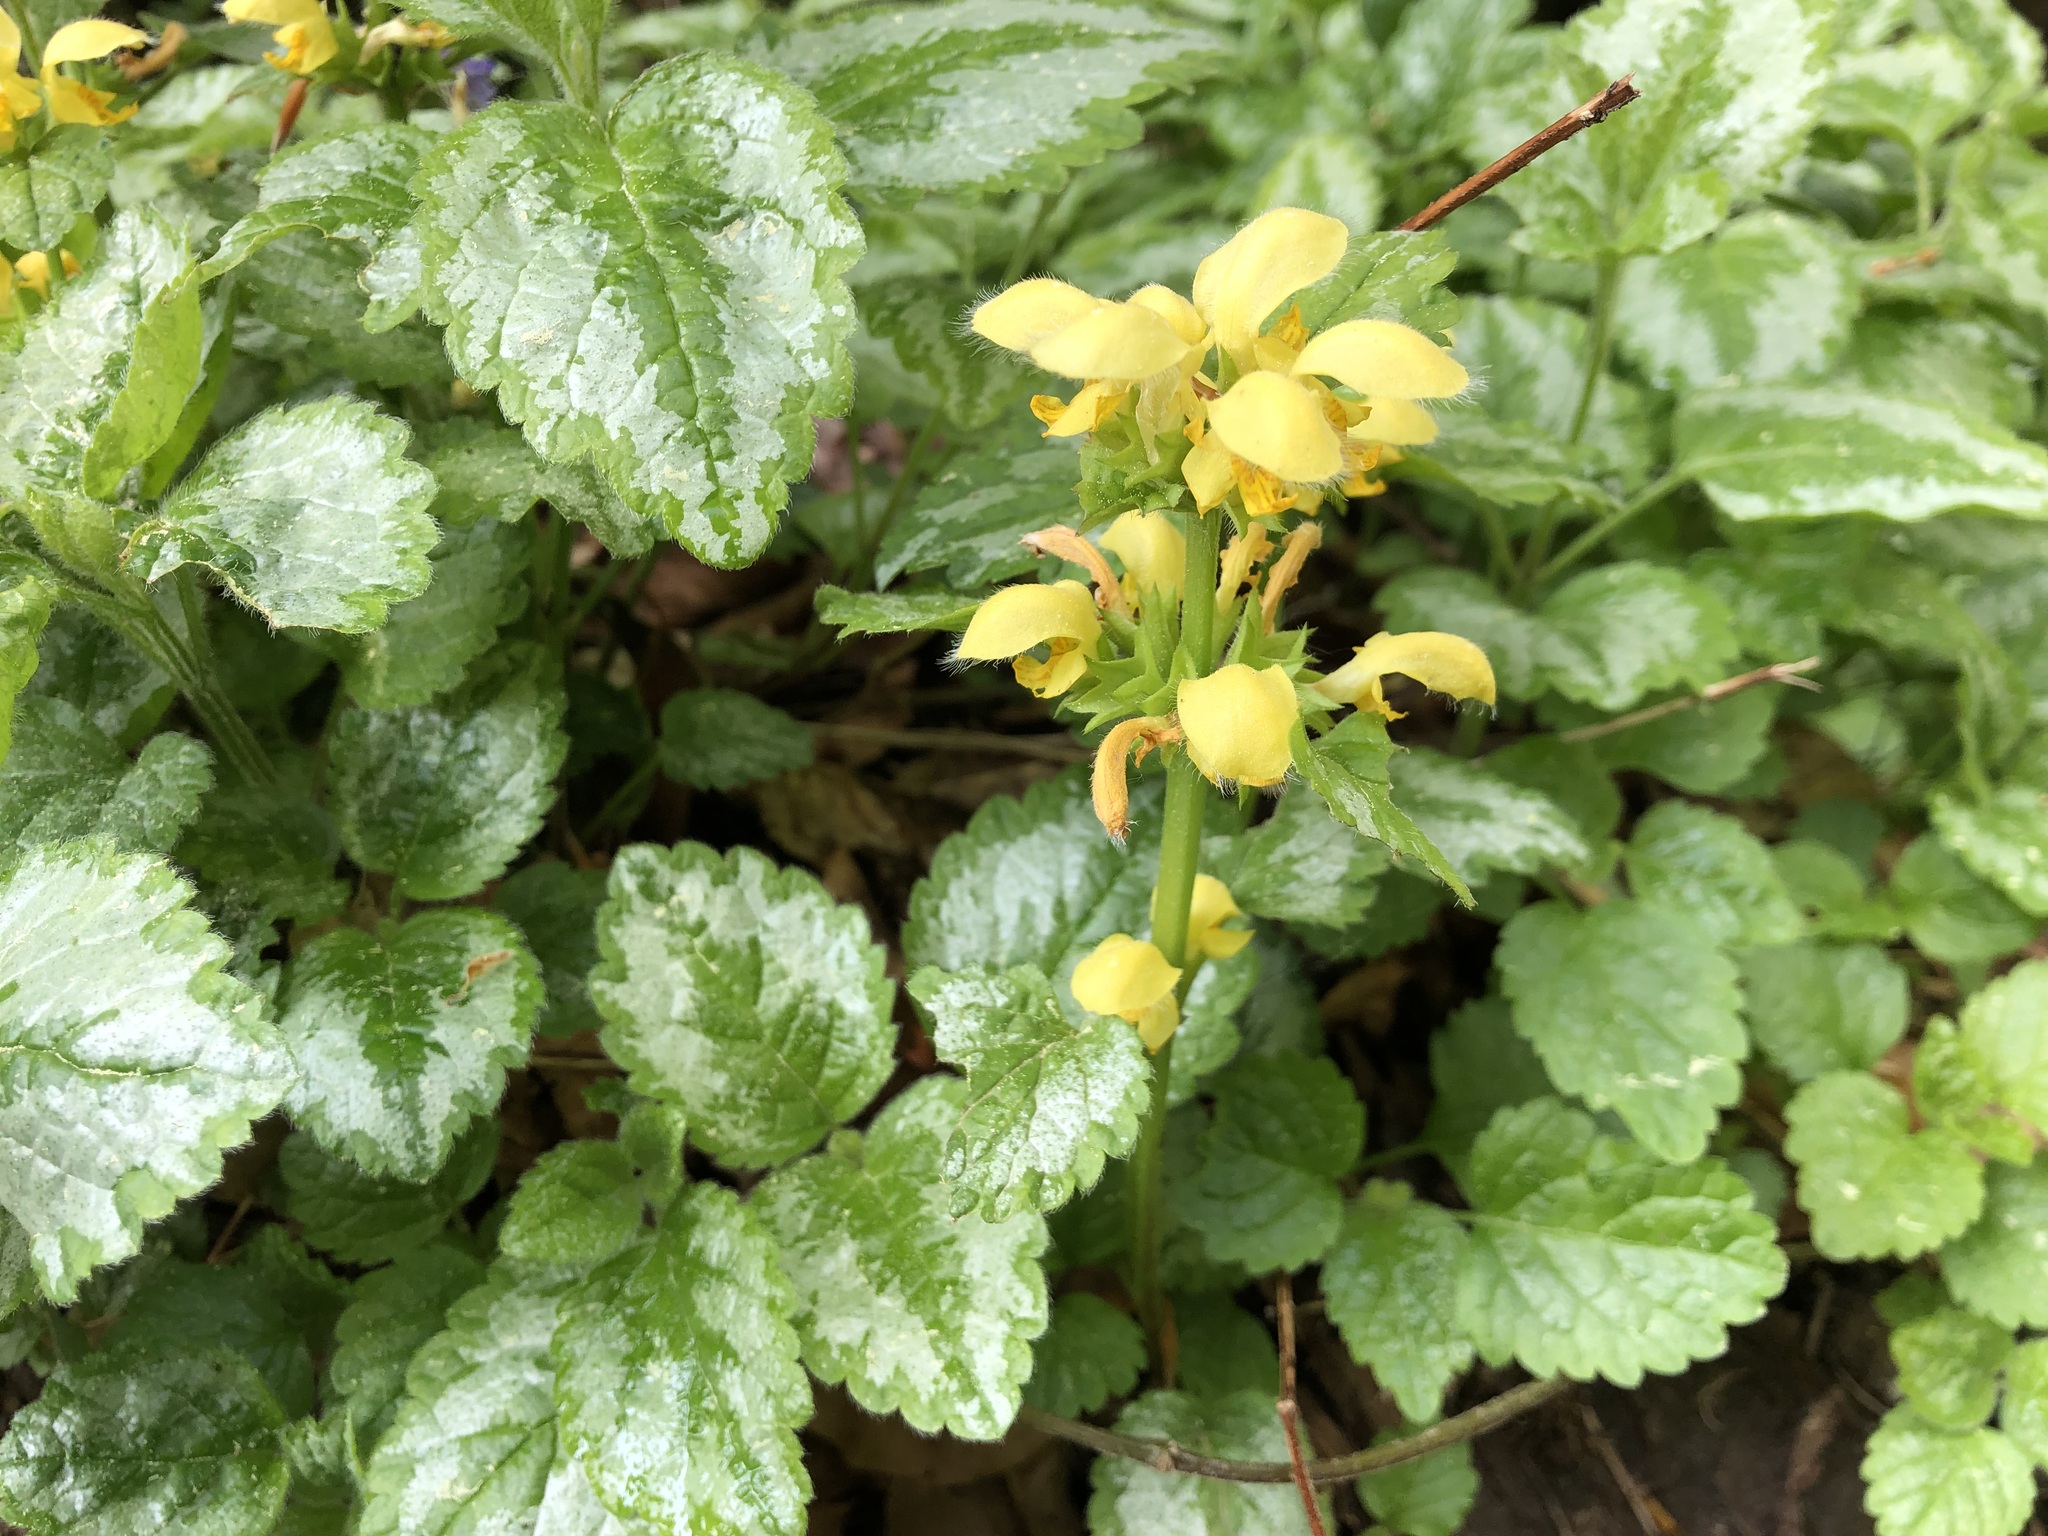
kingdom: Plantae
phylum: Tracheophyta
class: Magnoliopsida
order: Lamiales
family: Lamiaceae
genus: Lamium
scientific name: Lamium galeobdolon
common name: Yellow archangel
